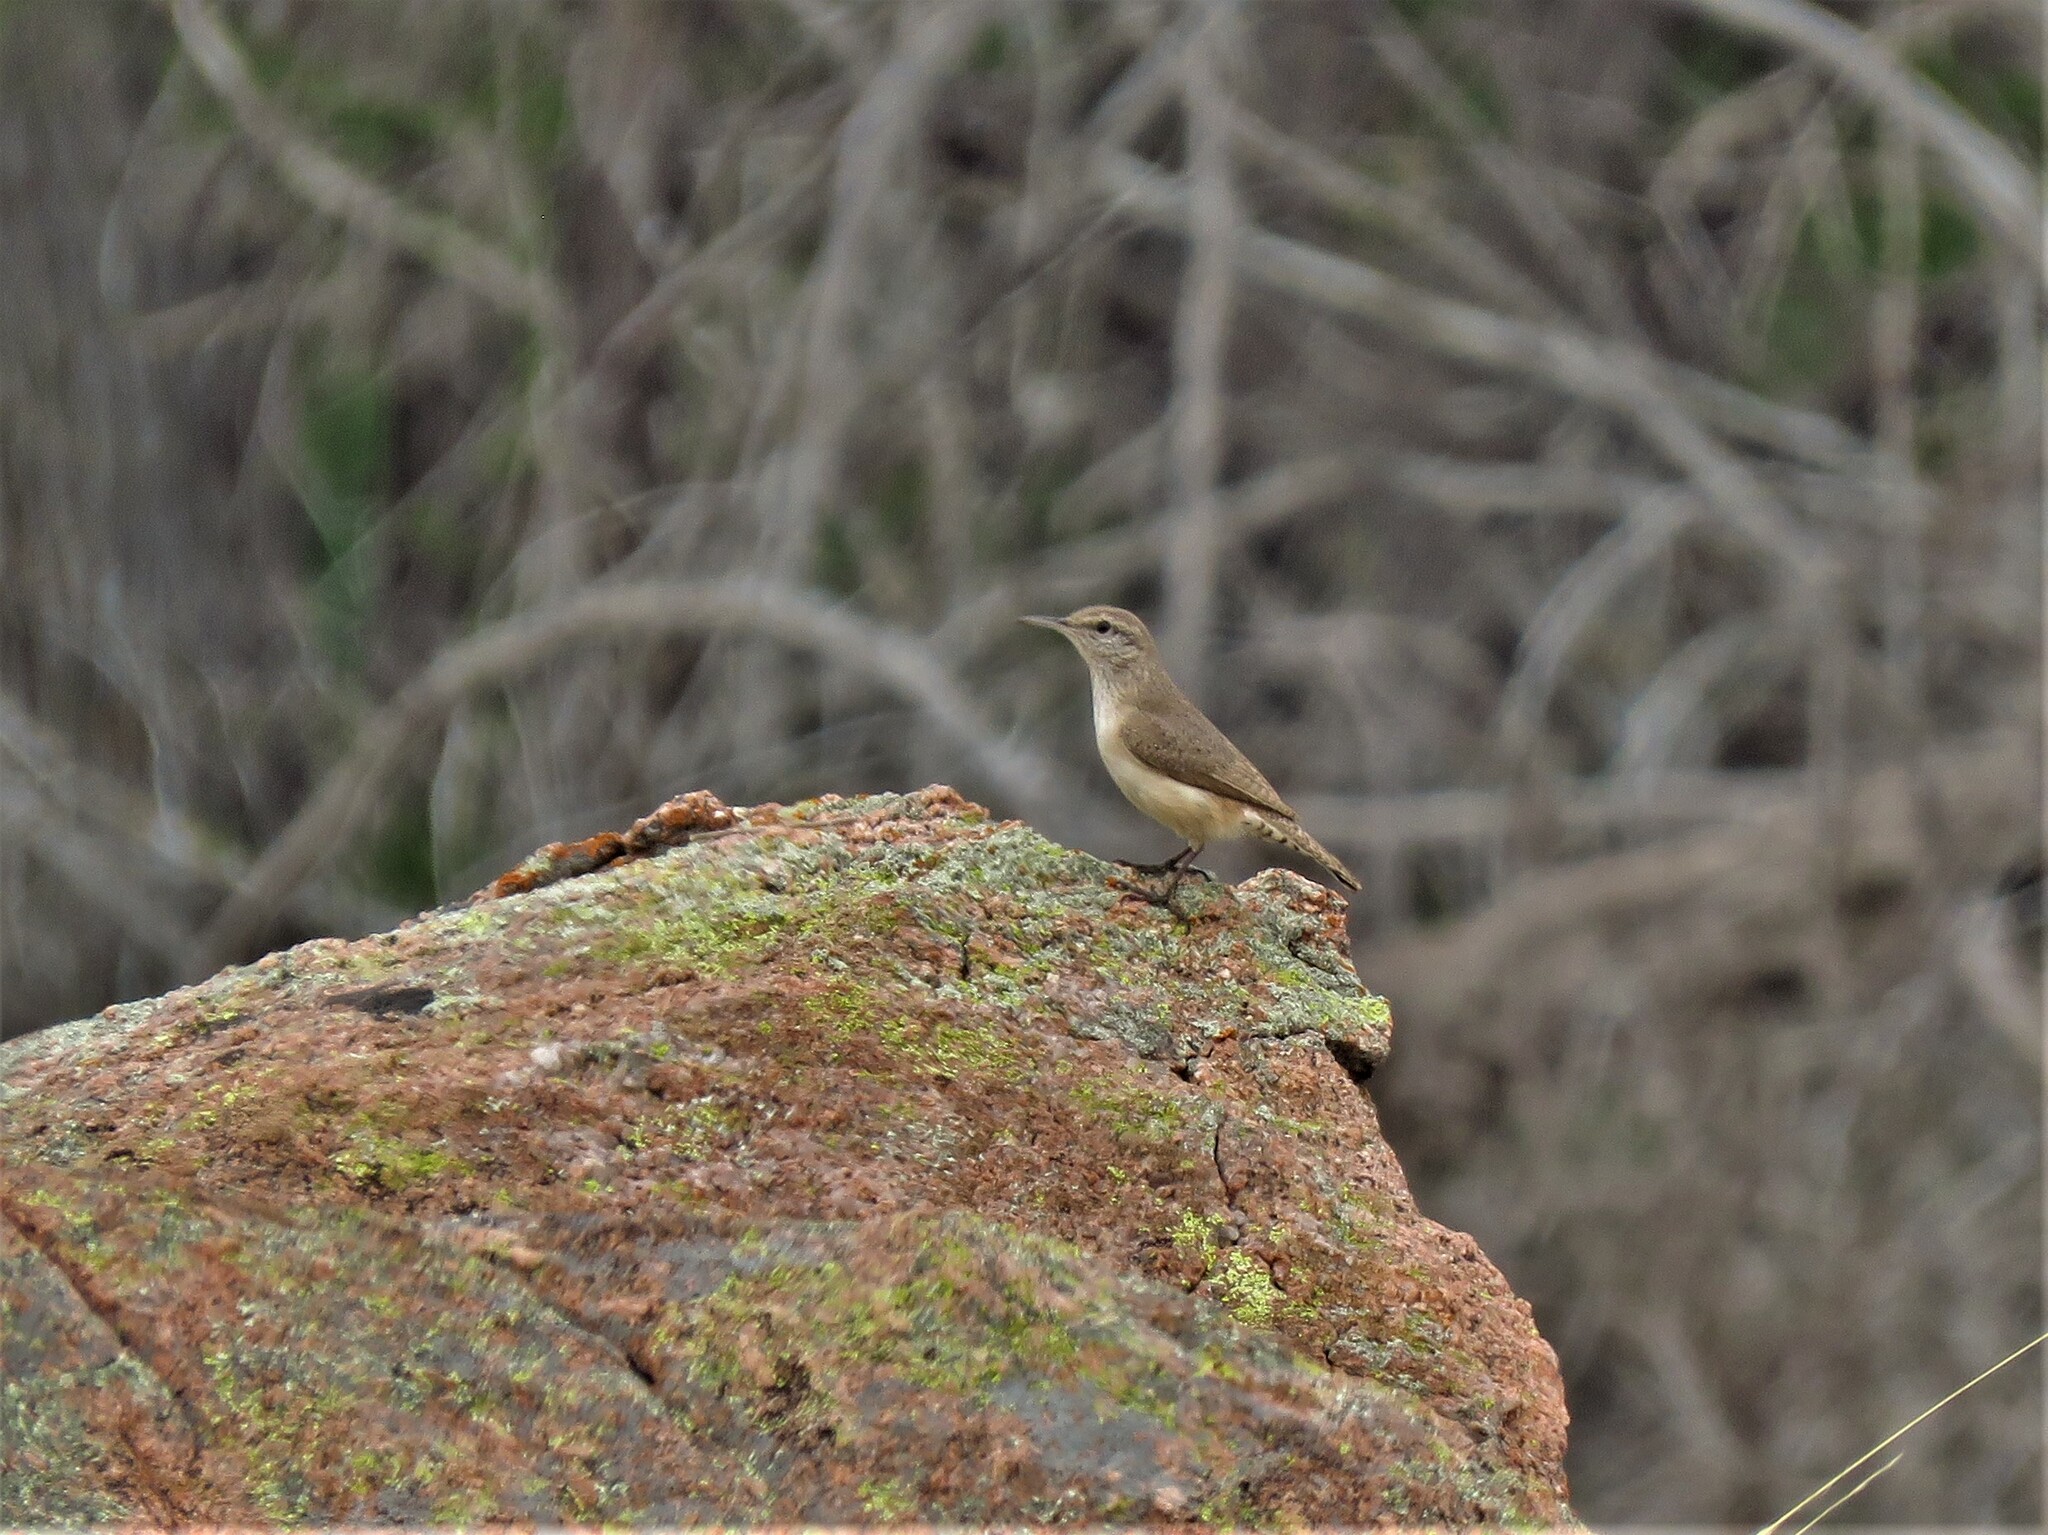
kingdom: Animalia
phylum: Chordata
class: Aves
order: Passeriformes
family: Troglodytidae
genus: Salpinctes
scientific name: Salpinctes obsoletus
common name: Rock wren
